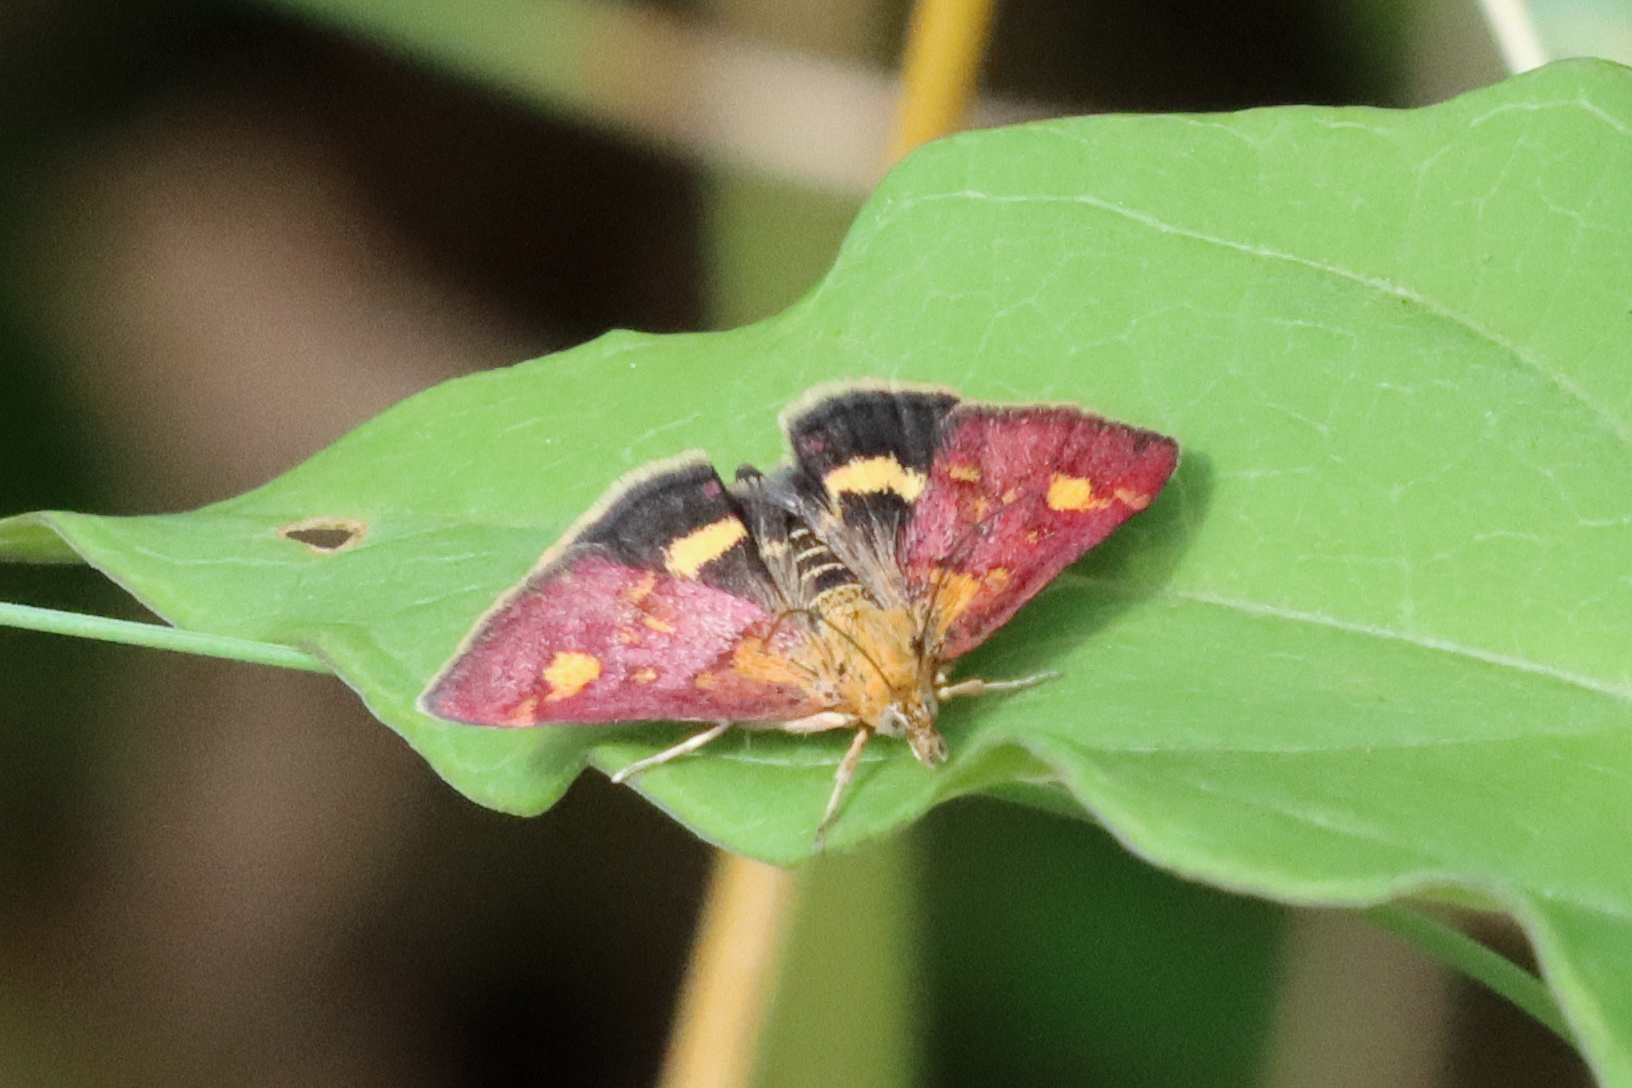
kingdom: Animalia
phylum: Arthropoda
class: Insecta
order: Lepidoptera
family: Crambidae
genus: Pyrausta
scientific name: Pyrausta aurata
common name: Small purple & gold
